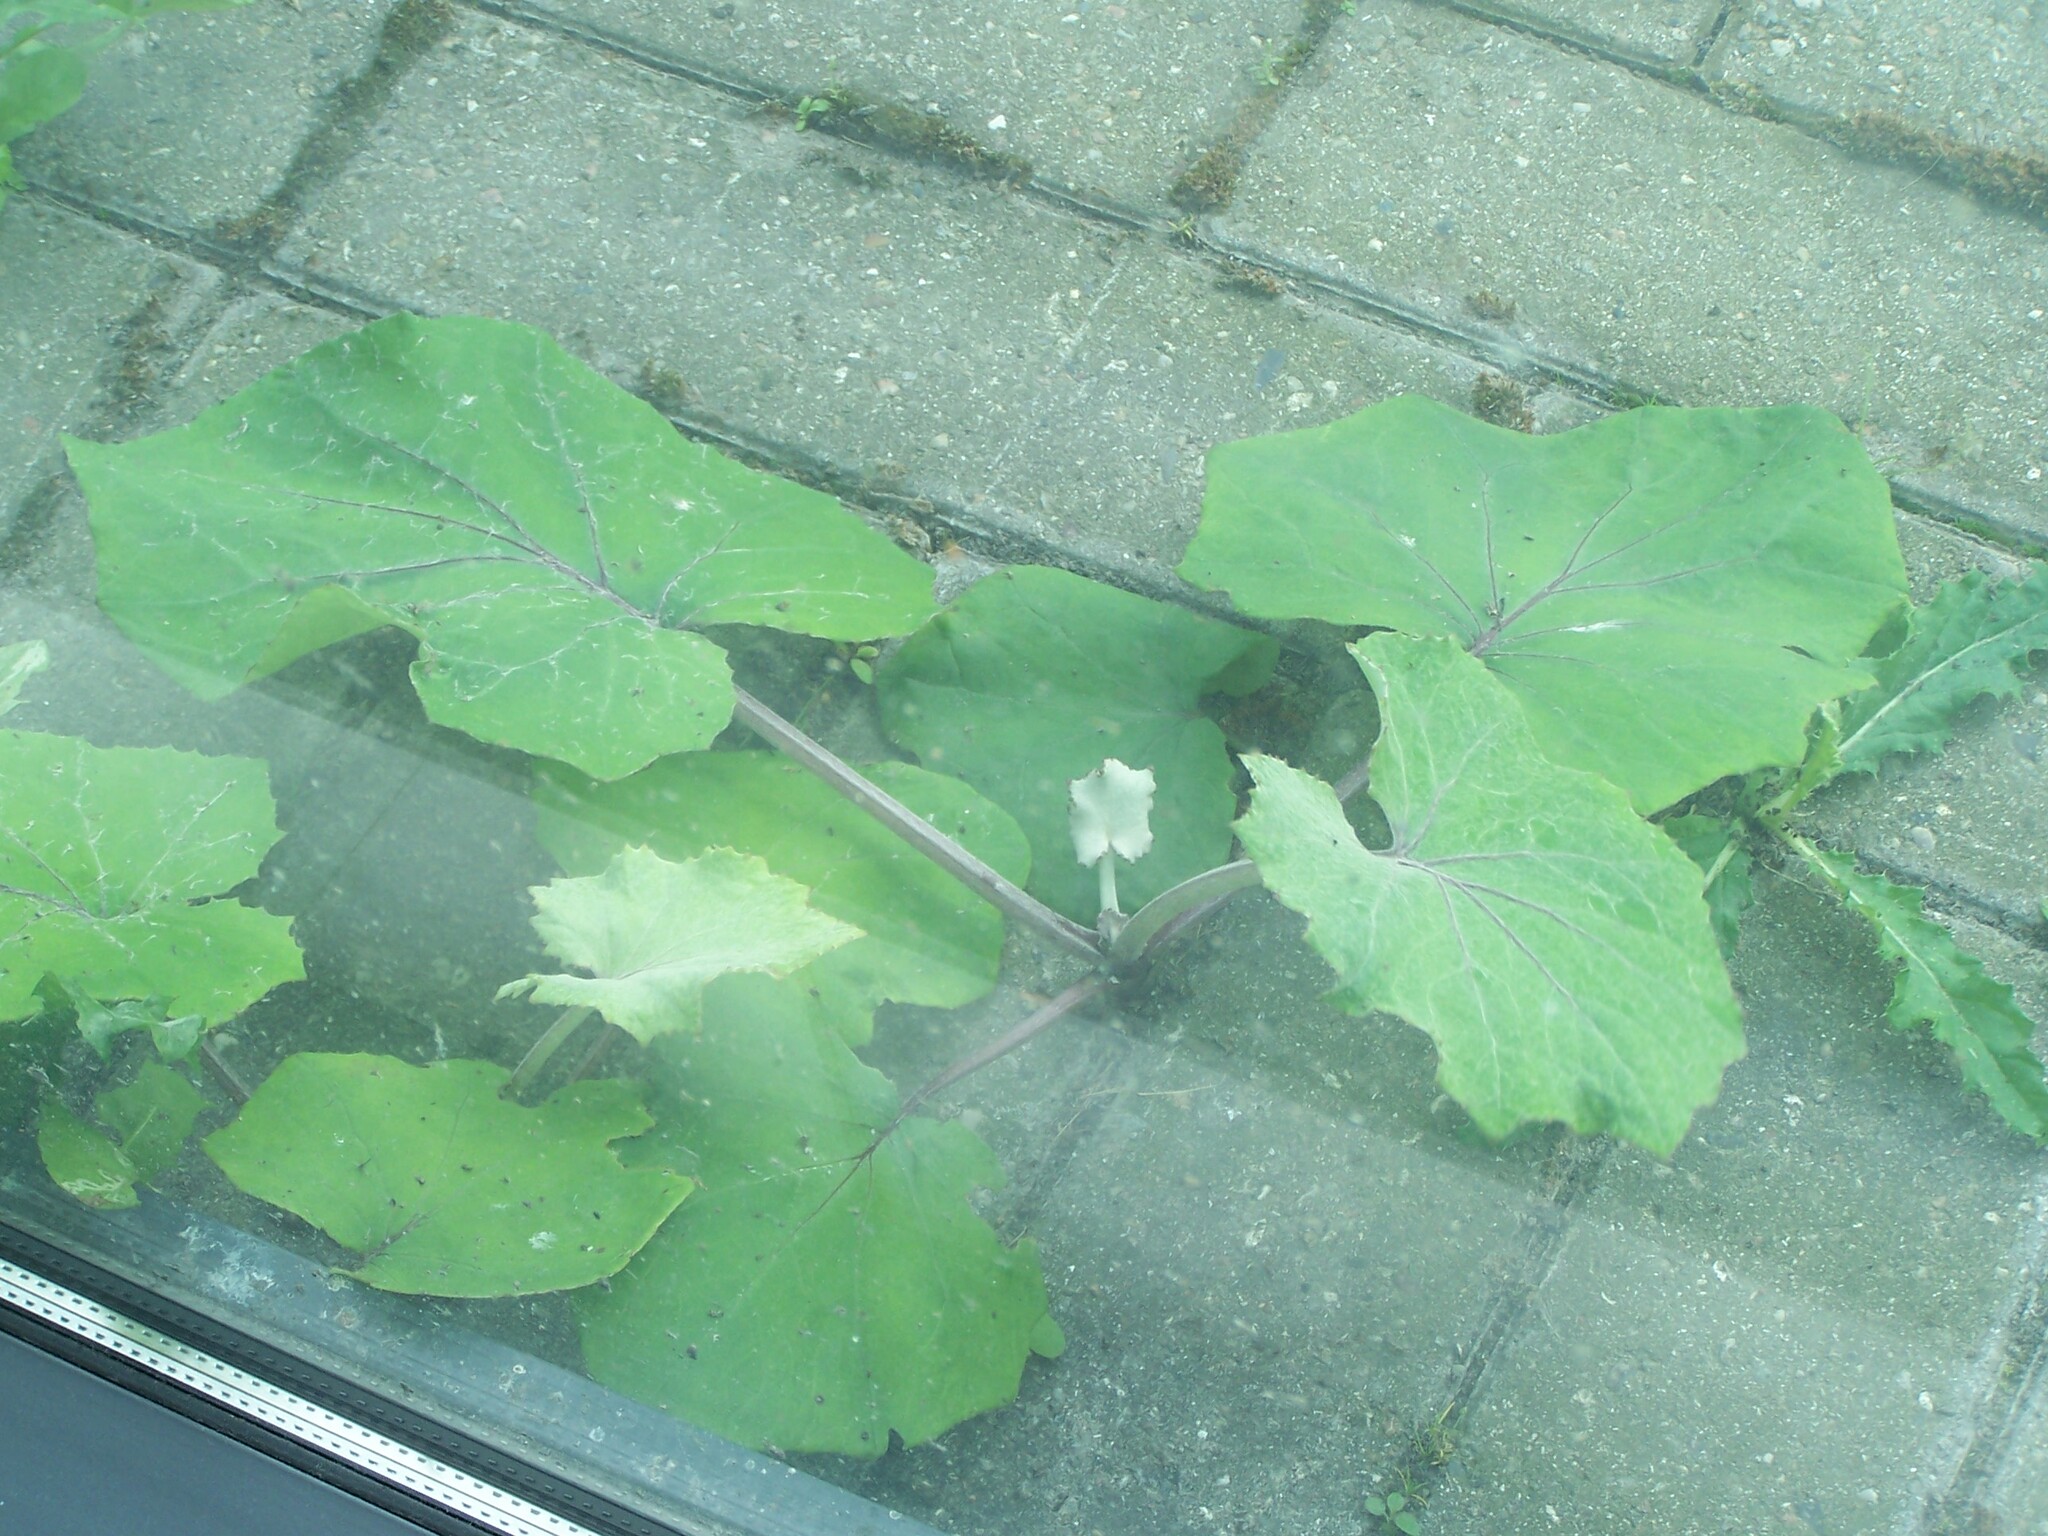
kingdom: Plantae
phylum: Tracheophyta
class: Magnoliopsida
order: Asterales
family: Asteraceae
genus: Tussilago
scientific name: Tussilago farfara
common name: Coltsfoot
